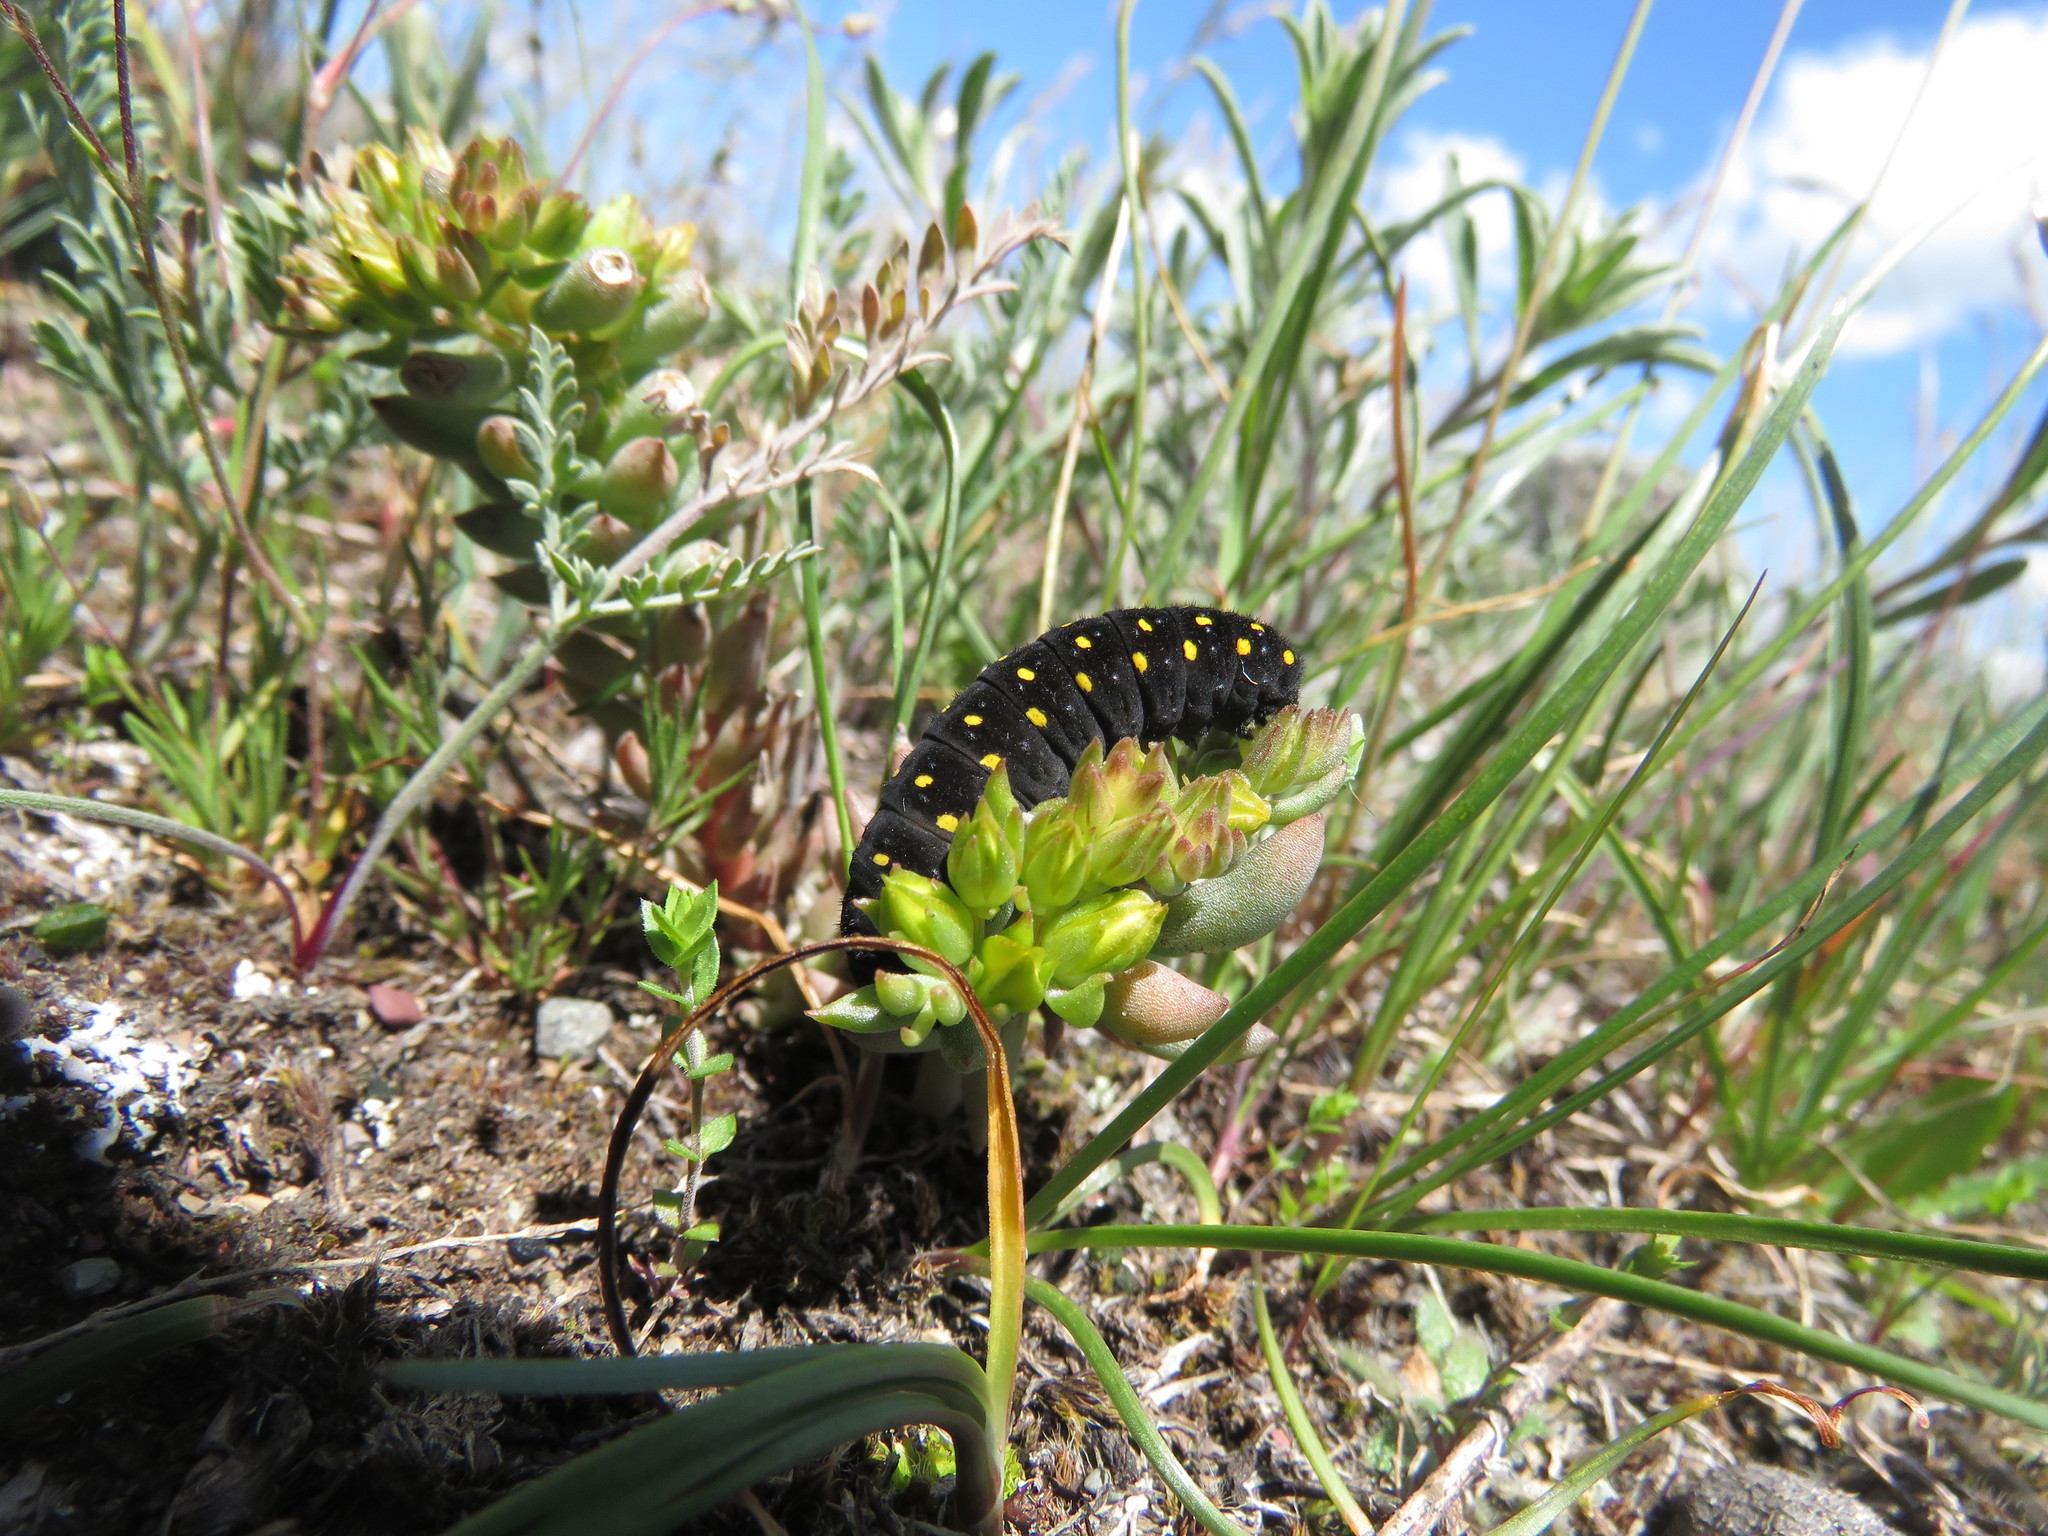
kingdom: Animalia
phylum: Arthropoda
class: Insecta
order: Lepidoptera
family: Papilionidae
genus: Parnassius
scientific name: Parnassius smintheus
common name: Mountain parnassian
